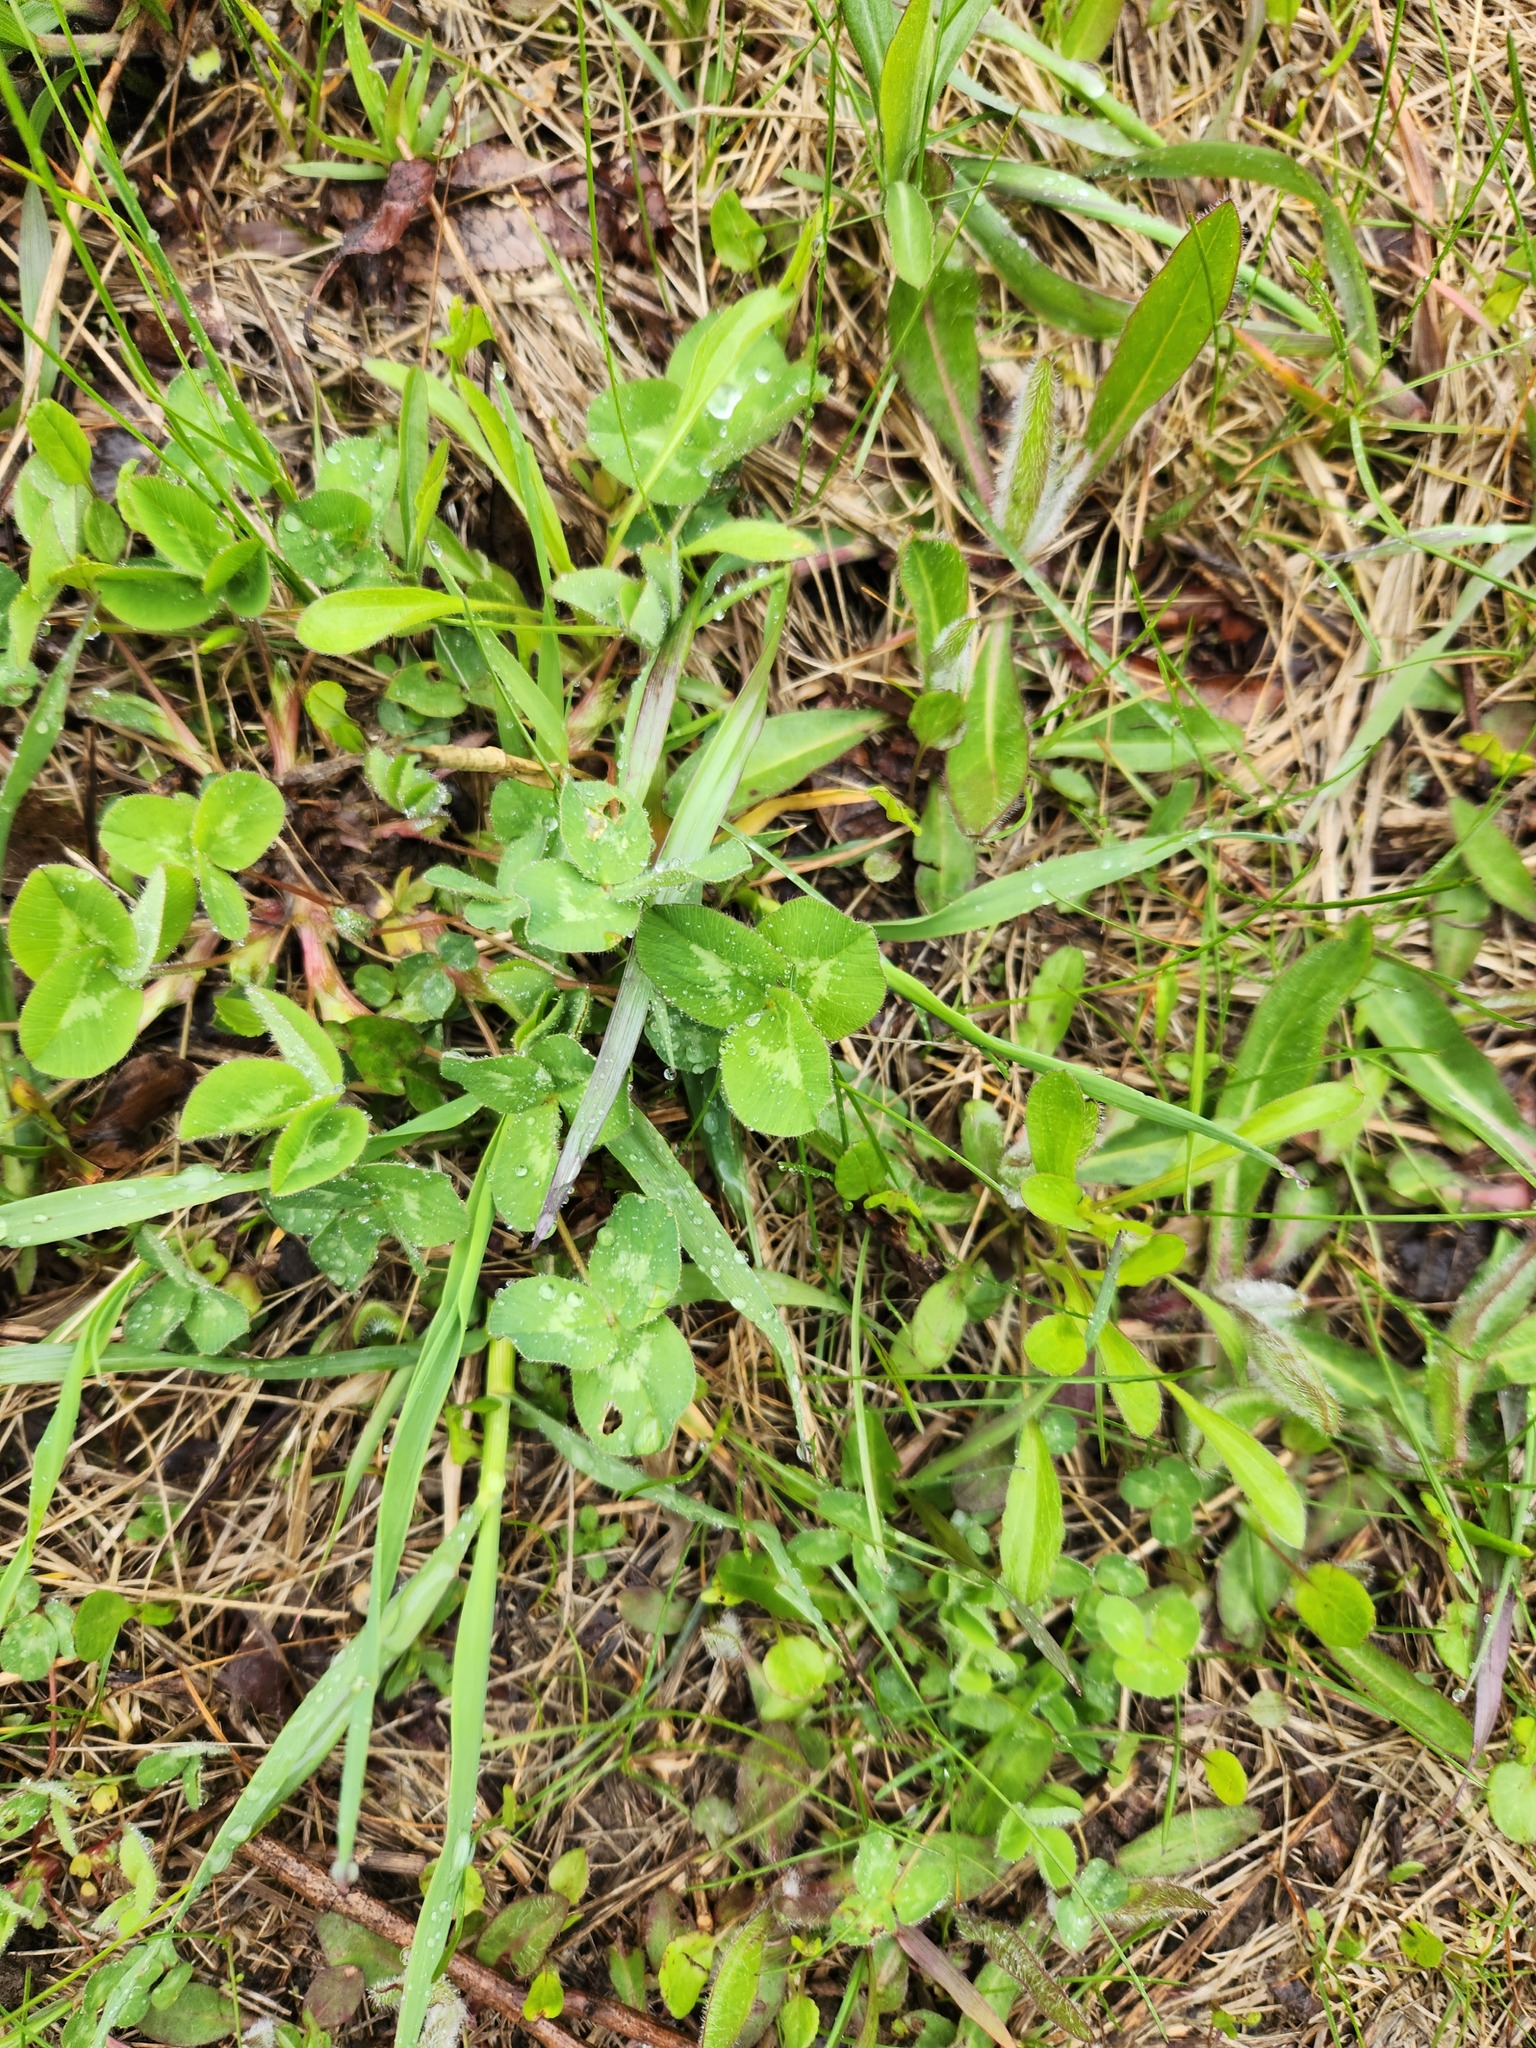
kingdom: Plantae
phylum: Tracheophyta
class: Magnoliopsida
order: Fabales
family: Fabaceae
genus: Trifolium
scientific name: Trifolium pratense
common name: Red clover
